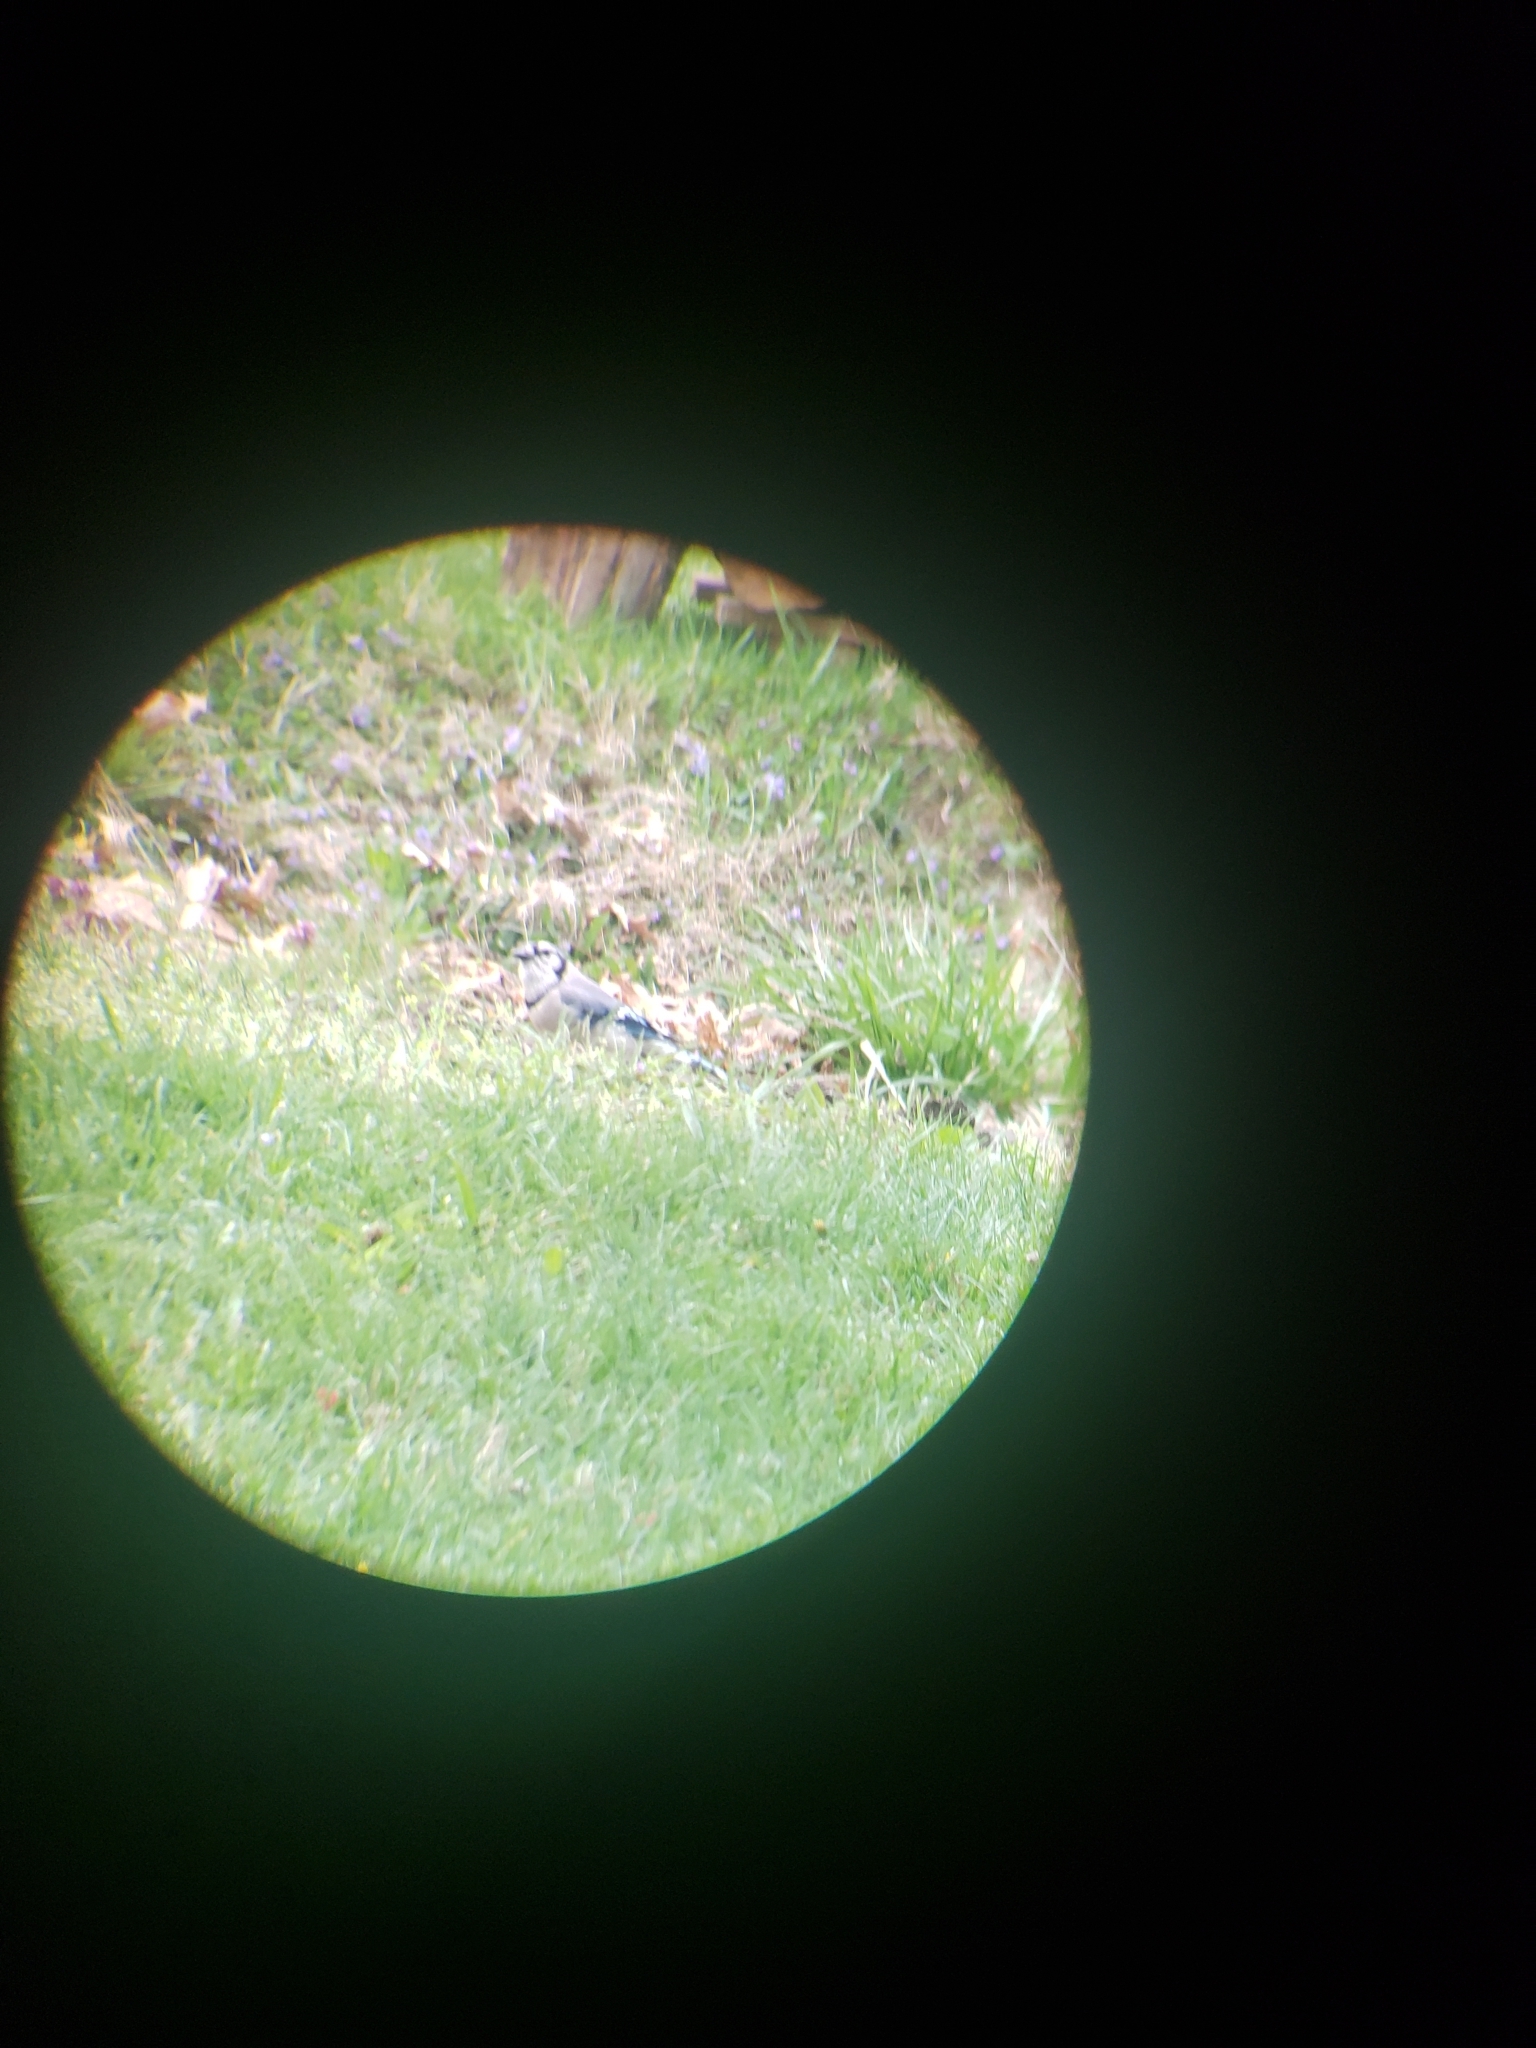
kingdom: Animalia
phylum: Chordata
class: Aves
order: Passeriformes
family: Corvidae
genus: Cyanocitta
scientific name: Cyanocitta cristata
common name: Blue jay
